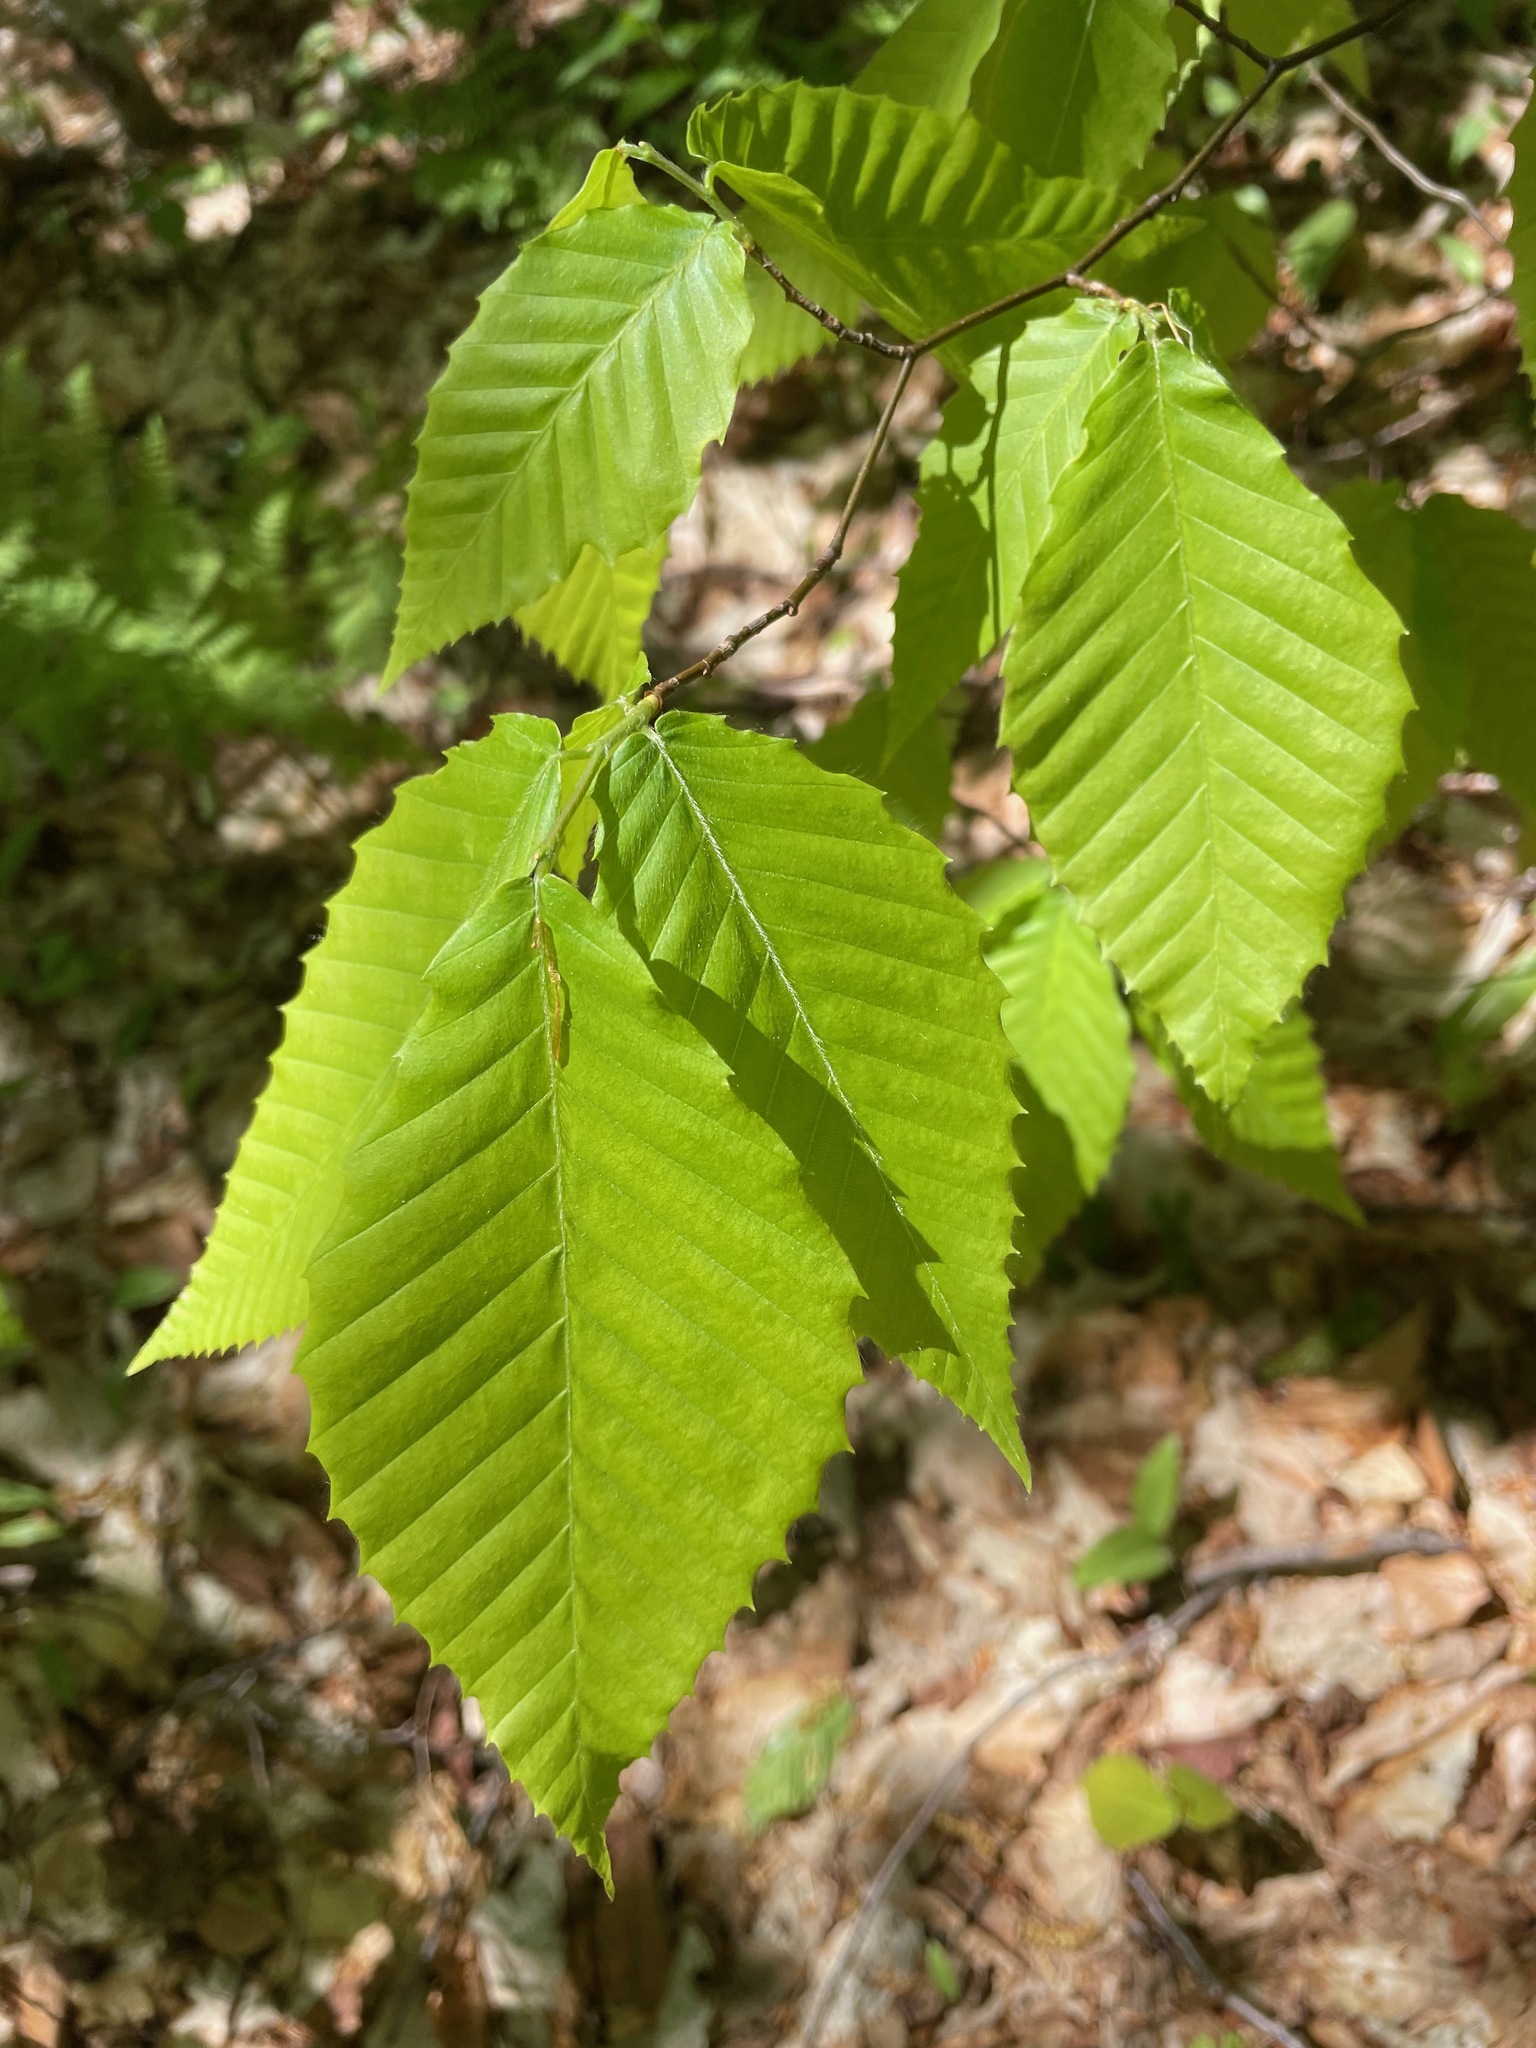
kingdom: Plantae
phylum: Tracheophyta
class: Magnoliopsida
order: Fagales
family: Fagaceae
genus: Fagus
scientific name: Fagus grandifolia
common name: American beech
